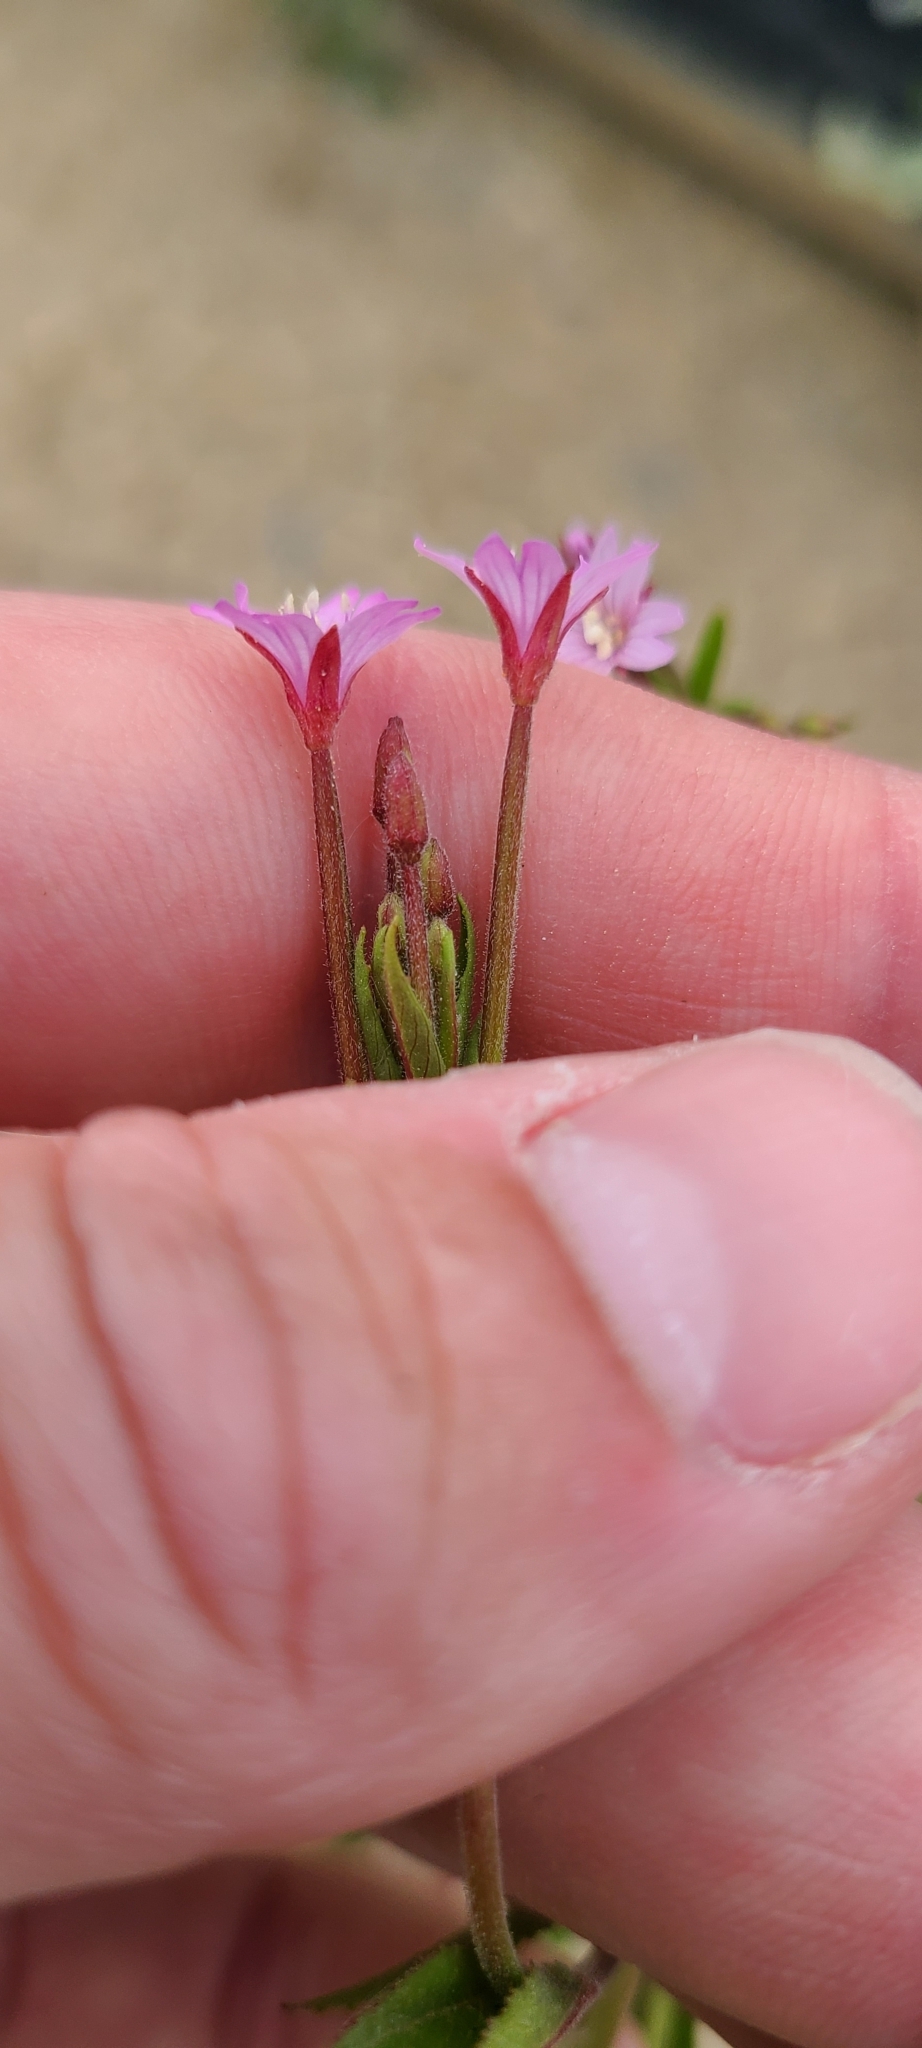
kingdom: Plantae
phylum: Tracheophyta
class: Magnoliopsida
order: Myrtales
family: Onagraceae
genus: Epilobium
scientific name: Epilobium ciliatum
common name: American willowherb
